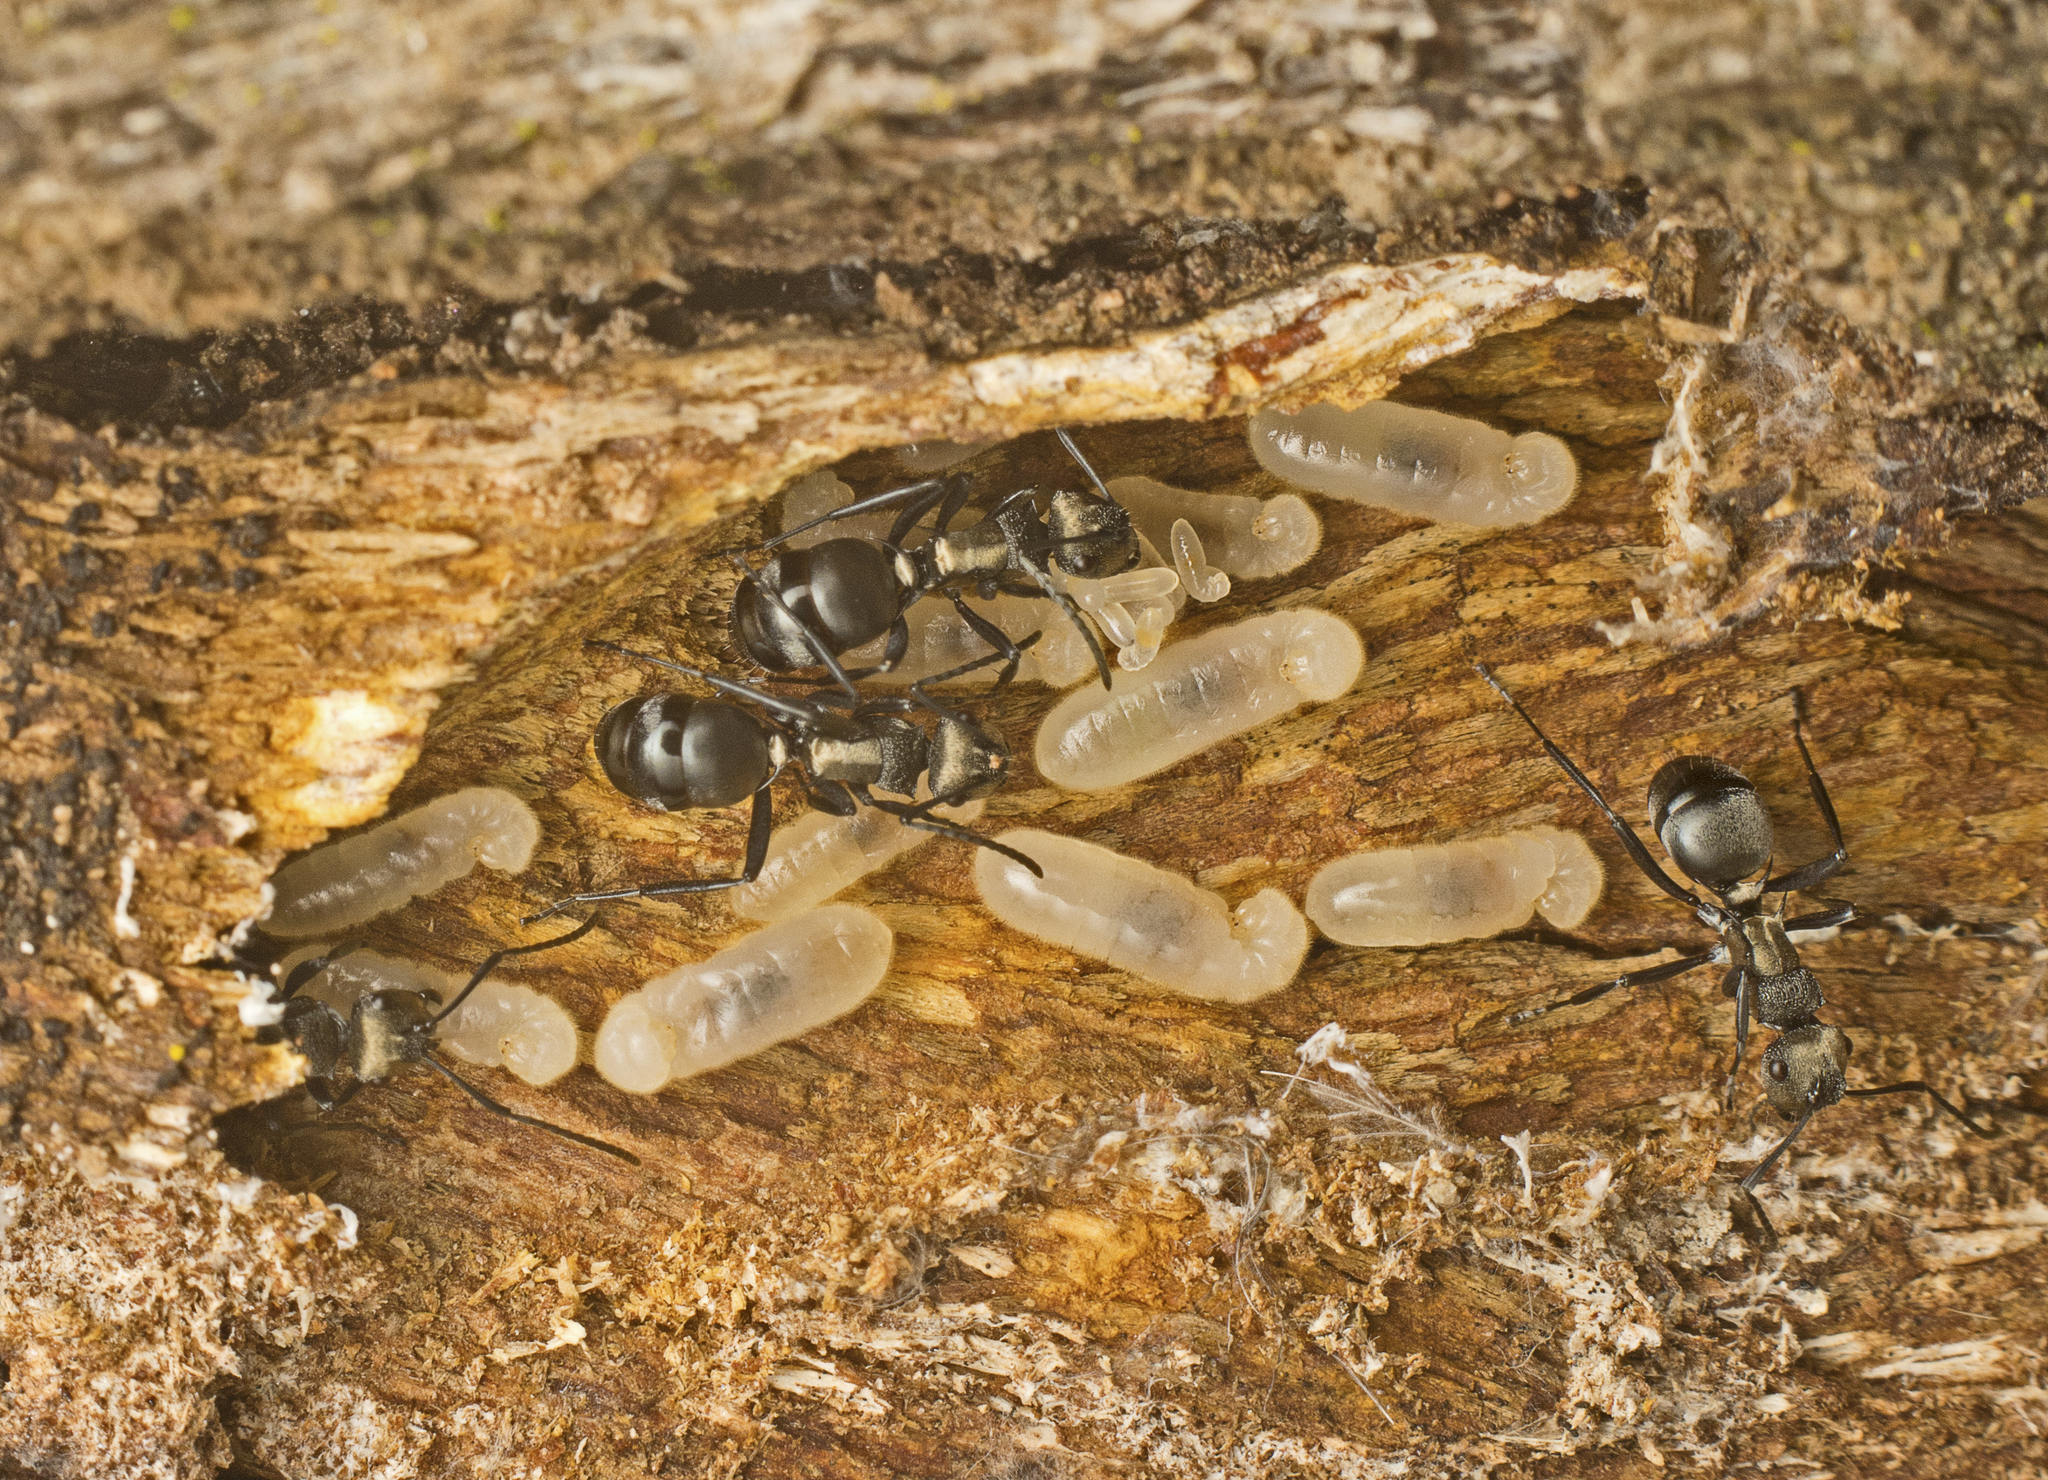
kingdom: Animalia
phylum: Arthropoda
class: Insecta
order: Hymenoptera
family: Formicidae
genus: Polyrhachis
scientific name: Polyrhachis daemeli
